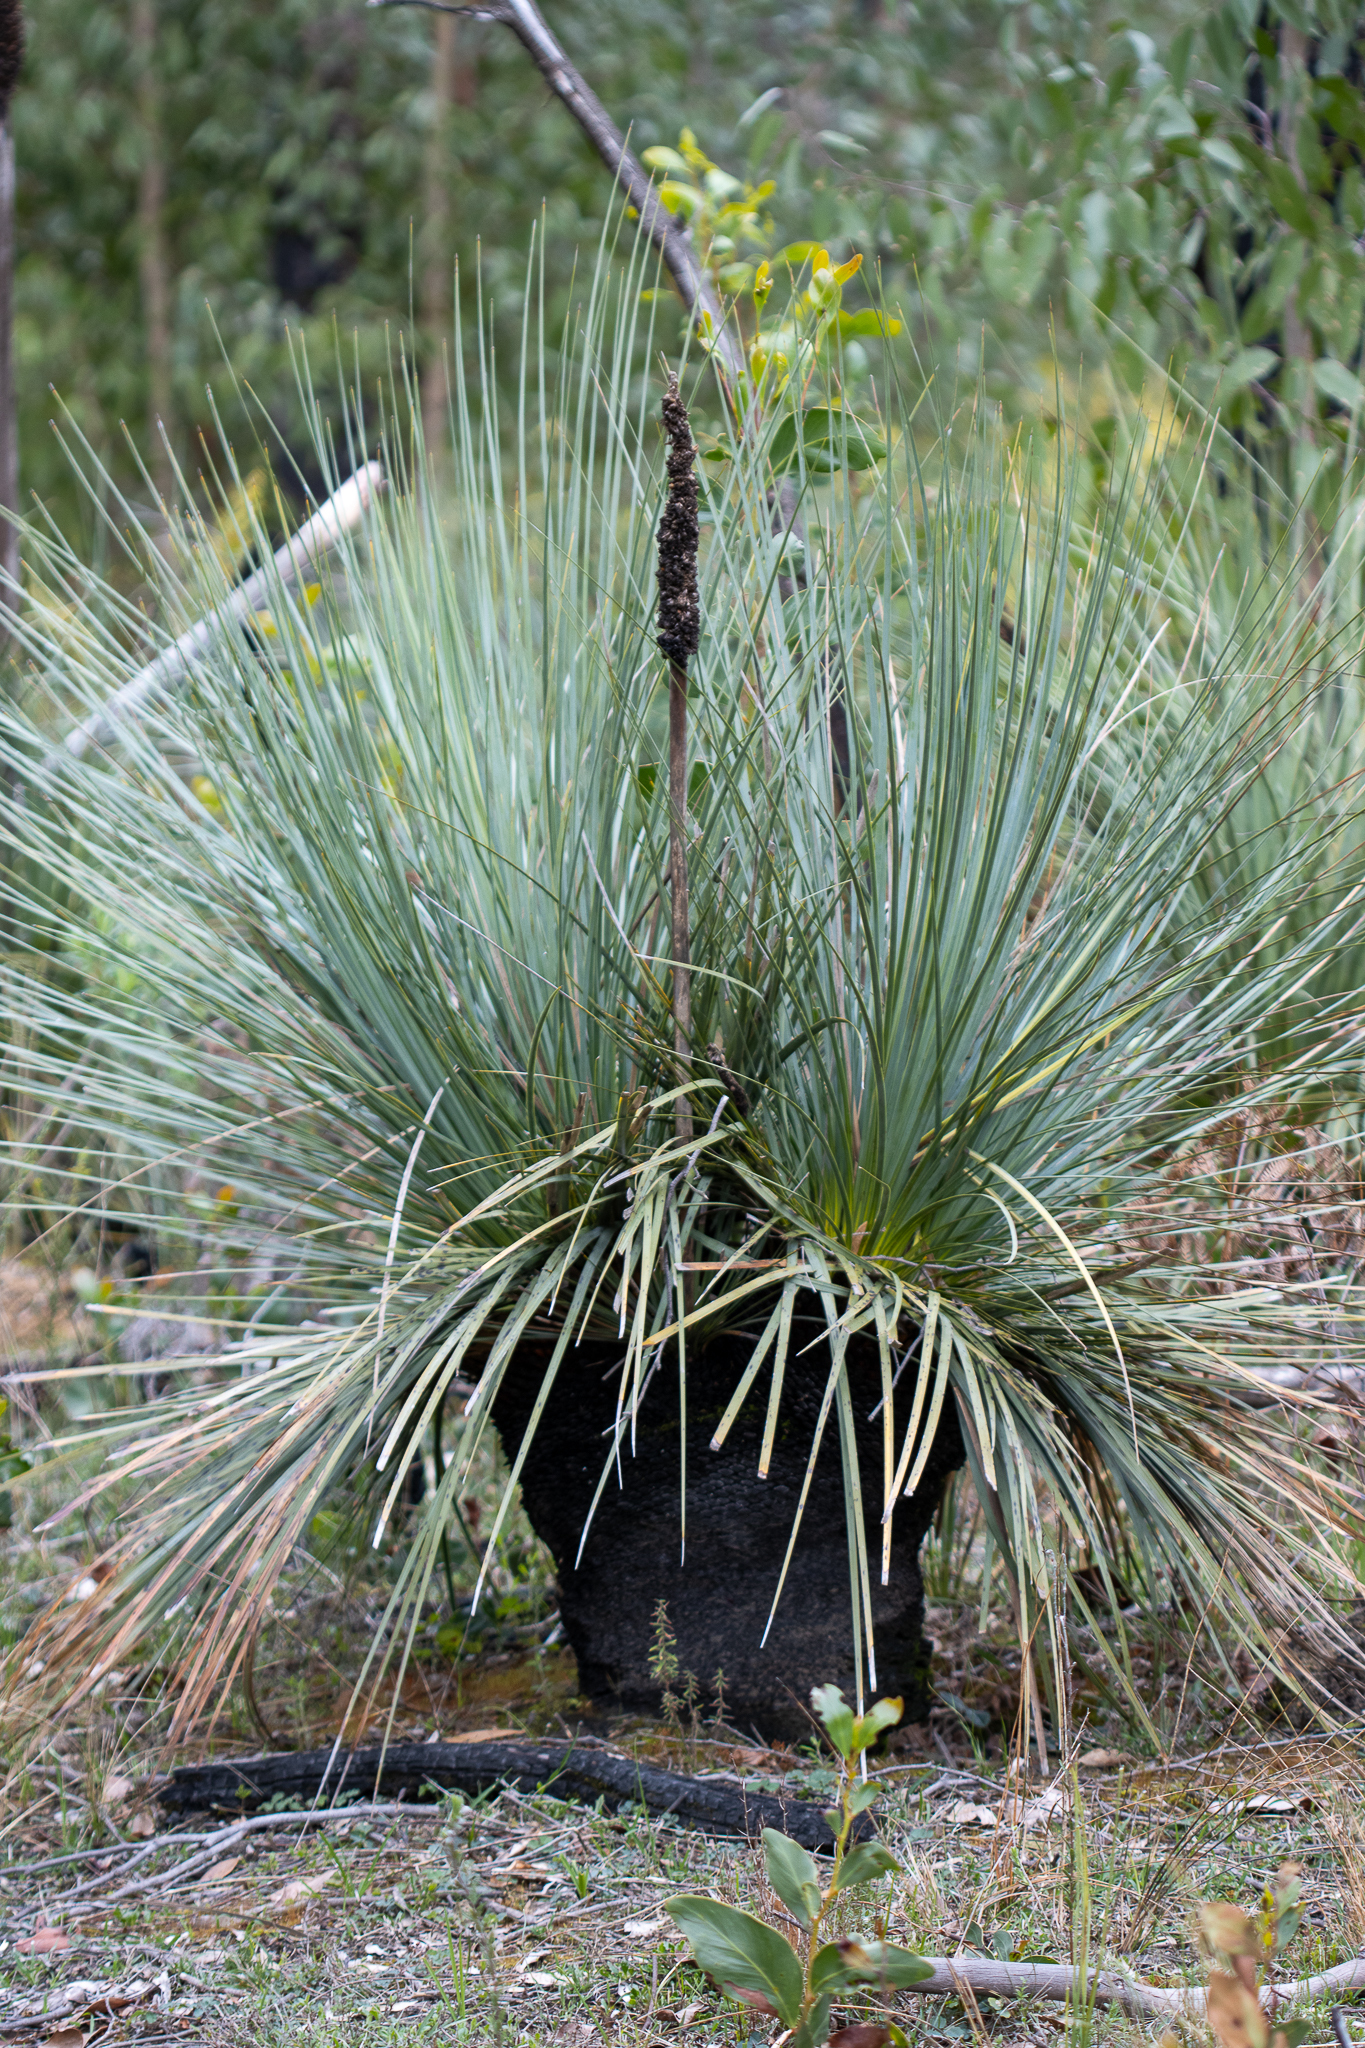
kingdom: Plantae
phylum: Tracheophyta
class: Liliopsida
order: Asparagales
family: Asphodelaceae
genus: Xanthorrhoea
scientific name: Xanthorrhoea semiplana
